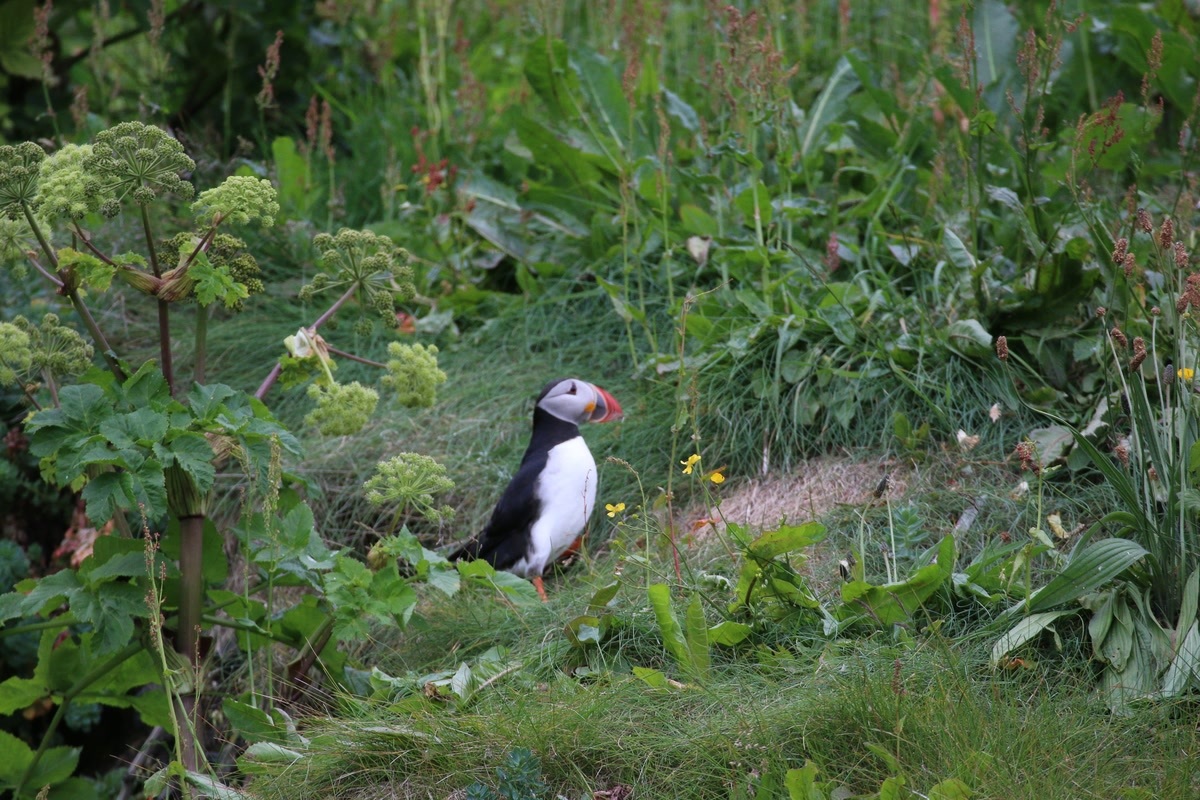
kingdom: Animalia
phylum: Chordata
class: Aves
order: Charadriiformes
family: Alcidae
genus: Fratercula
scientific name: Fratercula arctica
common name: Atlantic puffin
